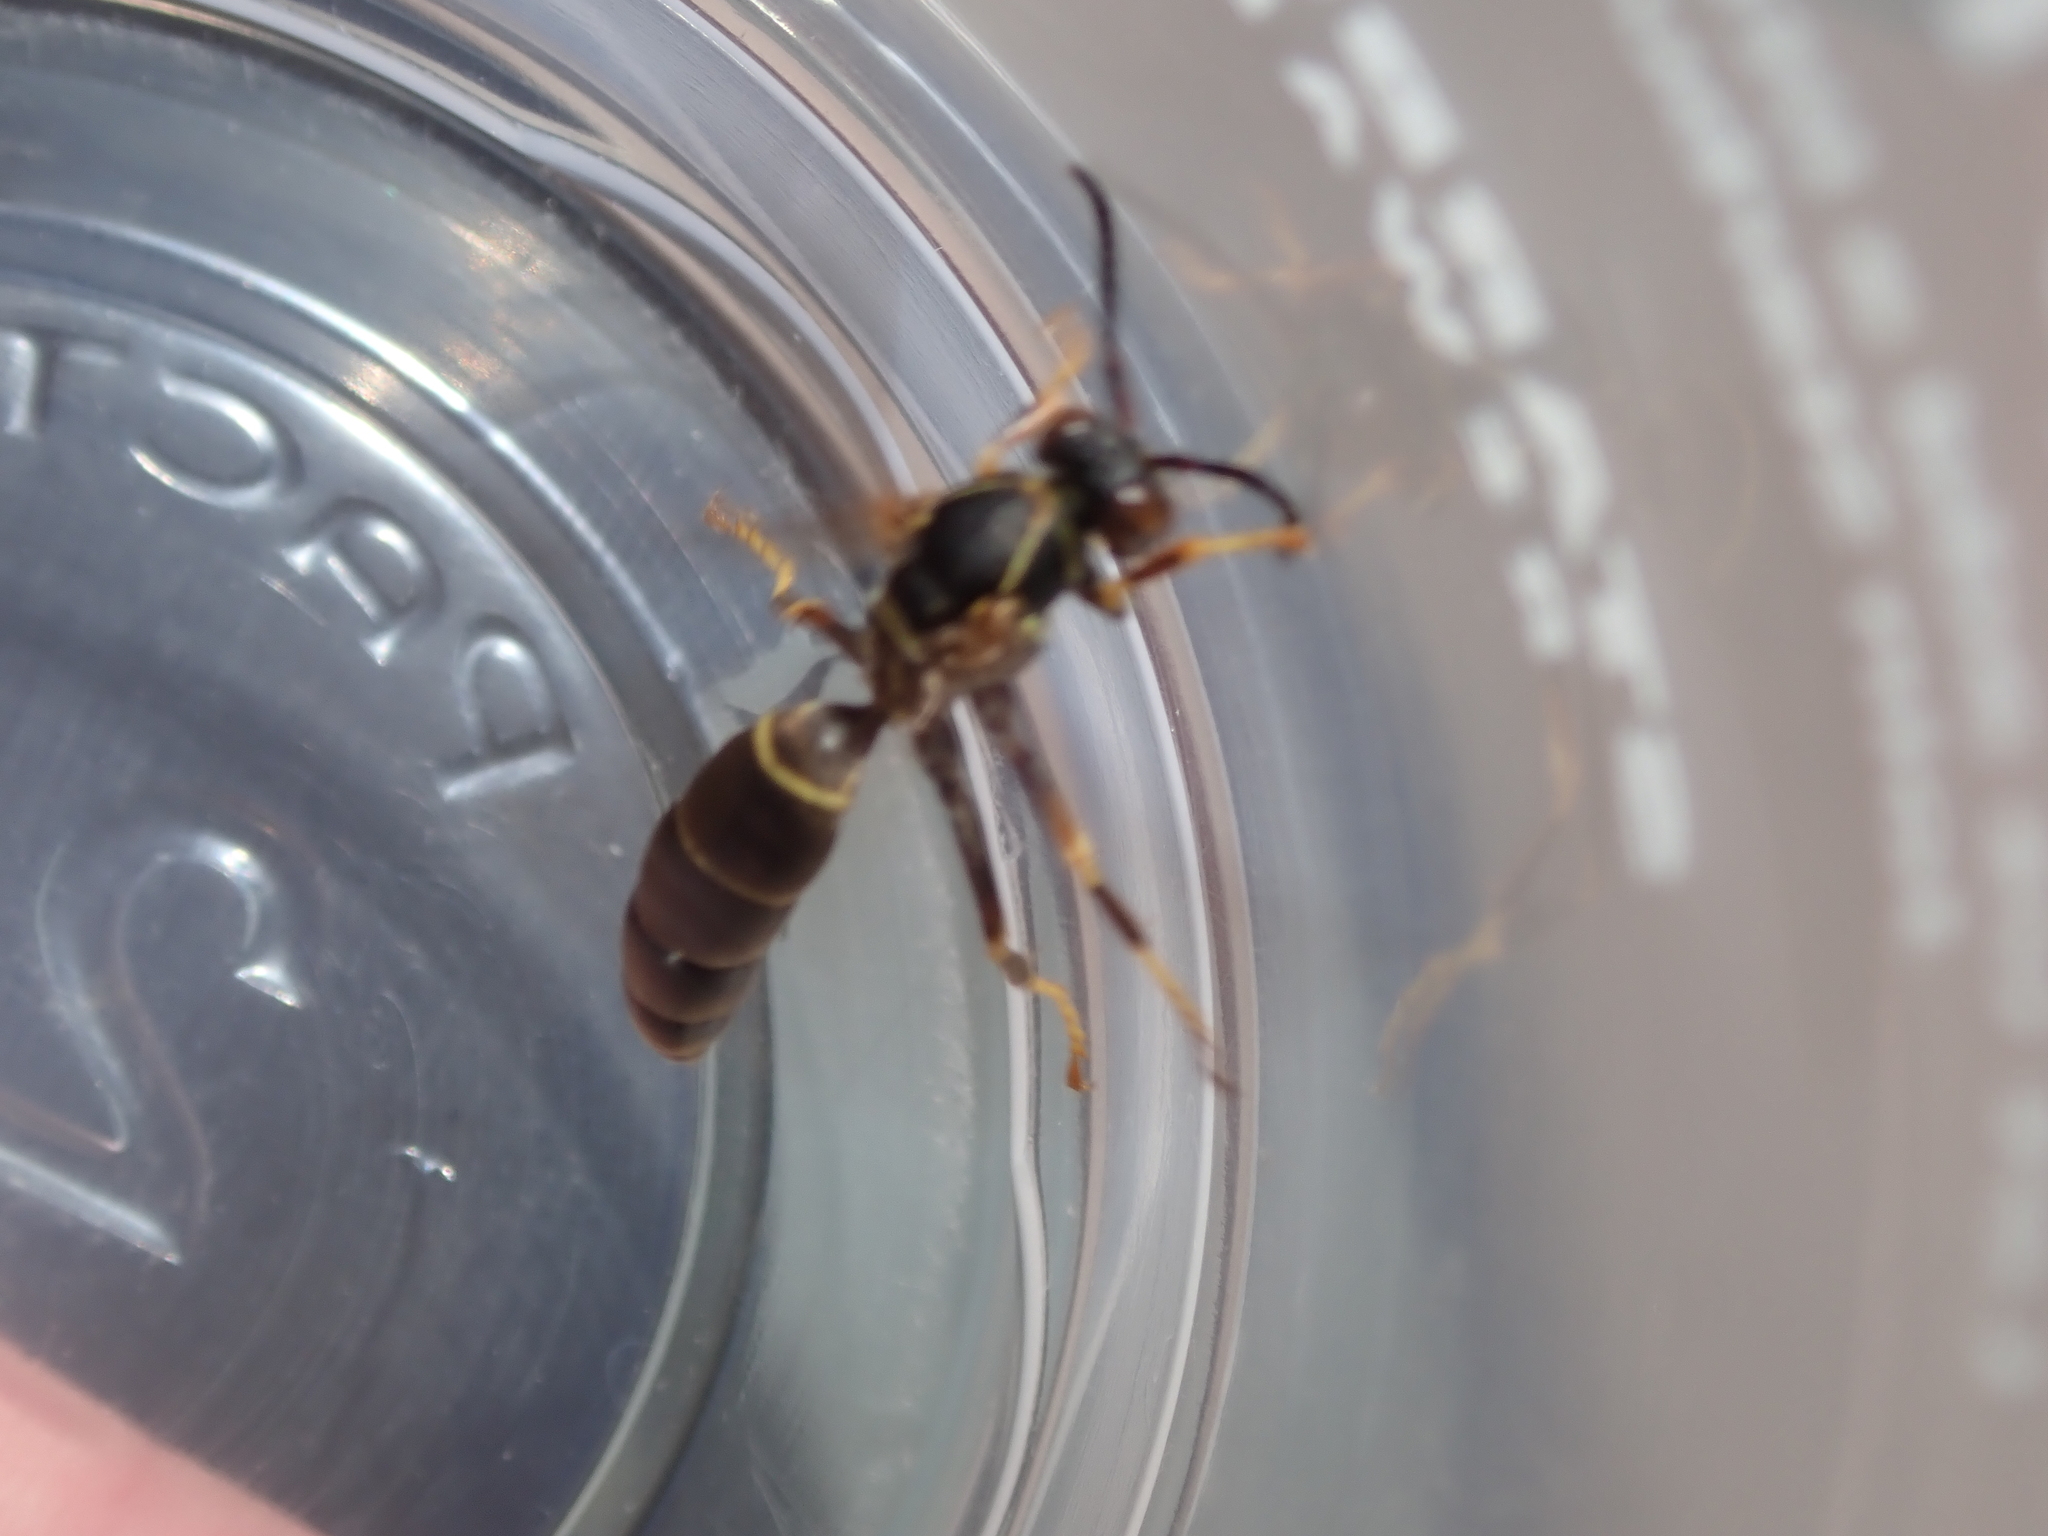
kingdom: Animalia
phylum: Arthropoda
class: Insecta
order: Hymenoptera
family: Eumenidae
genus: Polistes
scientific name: Polistes fuscatus
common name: Dark paper wasp
